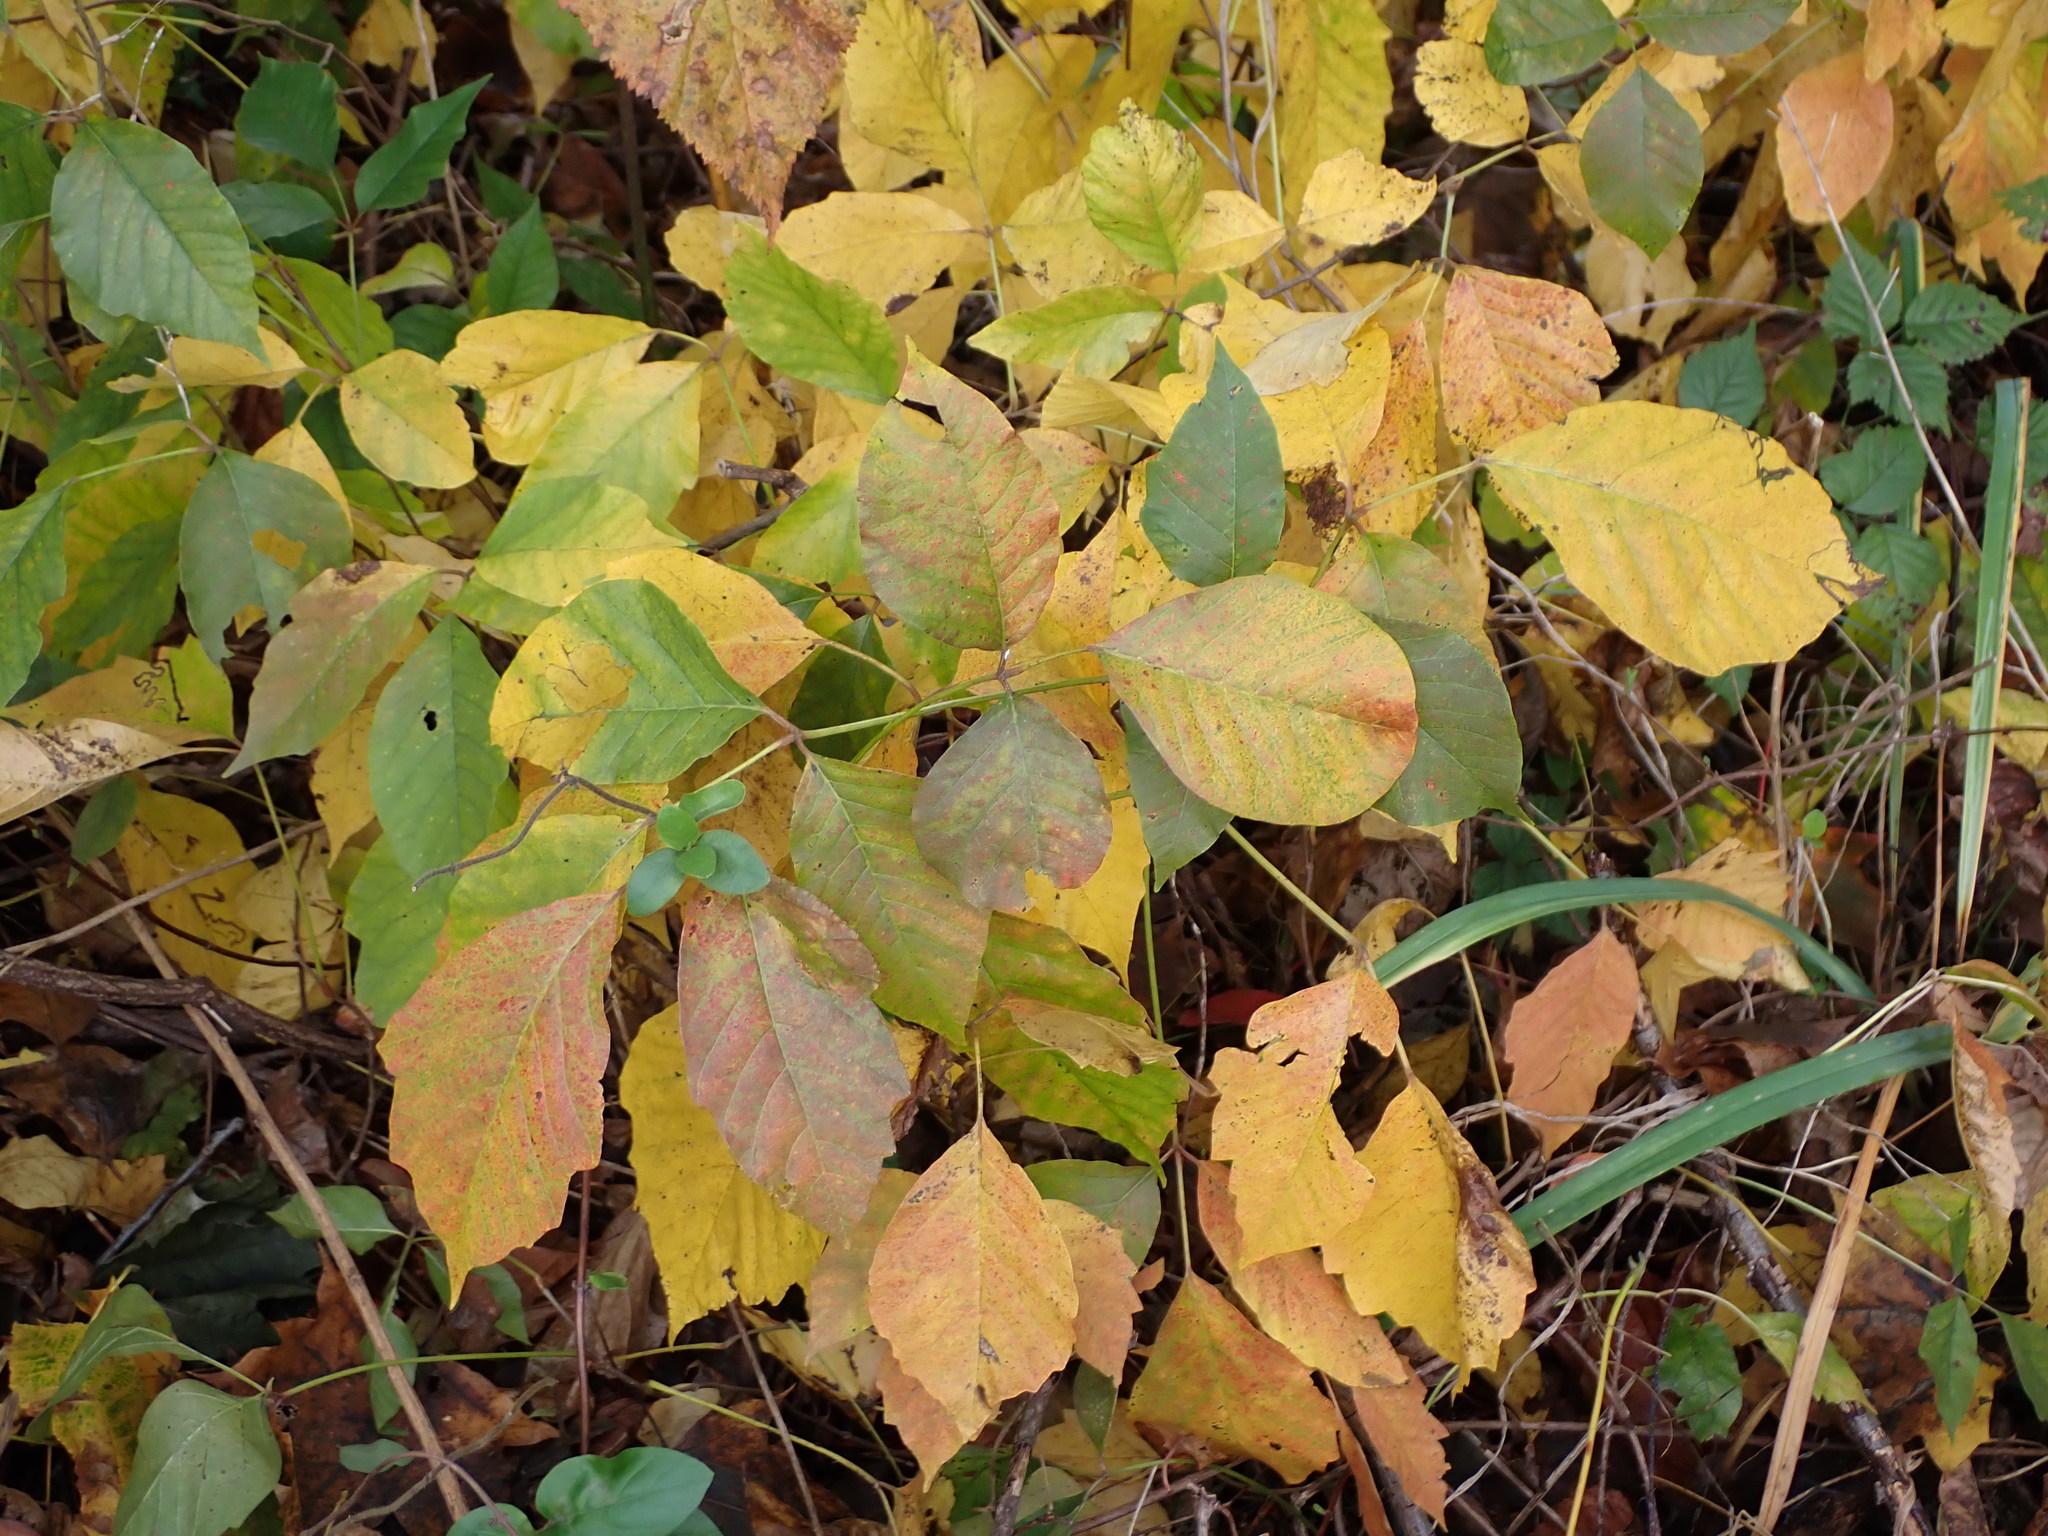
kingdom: Plantae
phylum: Tracheophyta
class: Magnoliopsida
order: Sapindales
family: Anacardiaceae
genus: Toxicodendron
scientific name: Toxicodendron radicans
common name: Poison ivy
